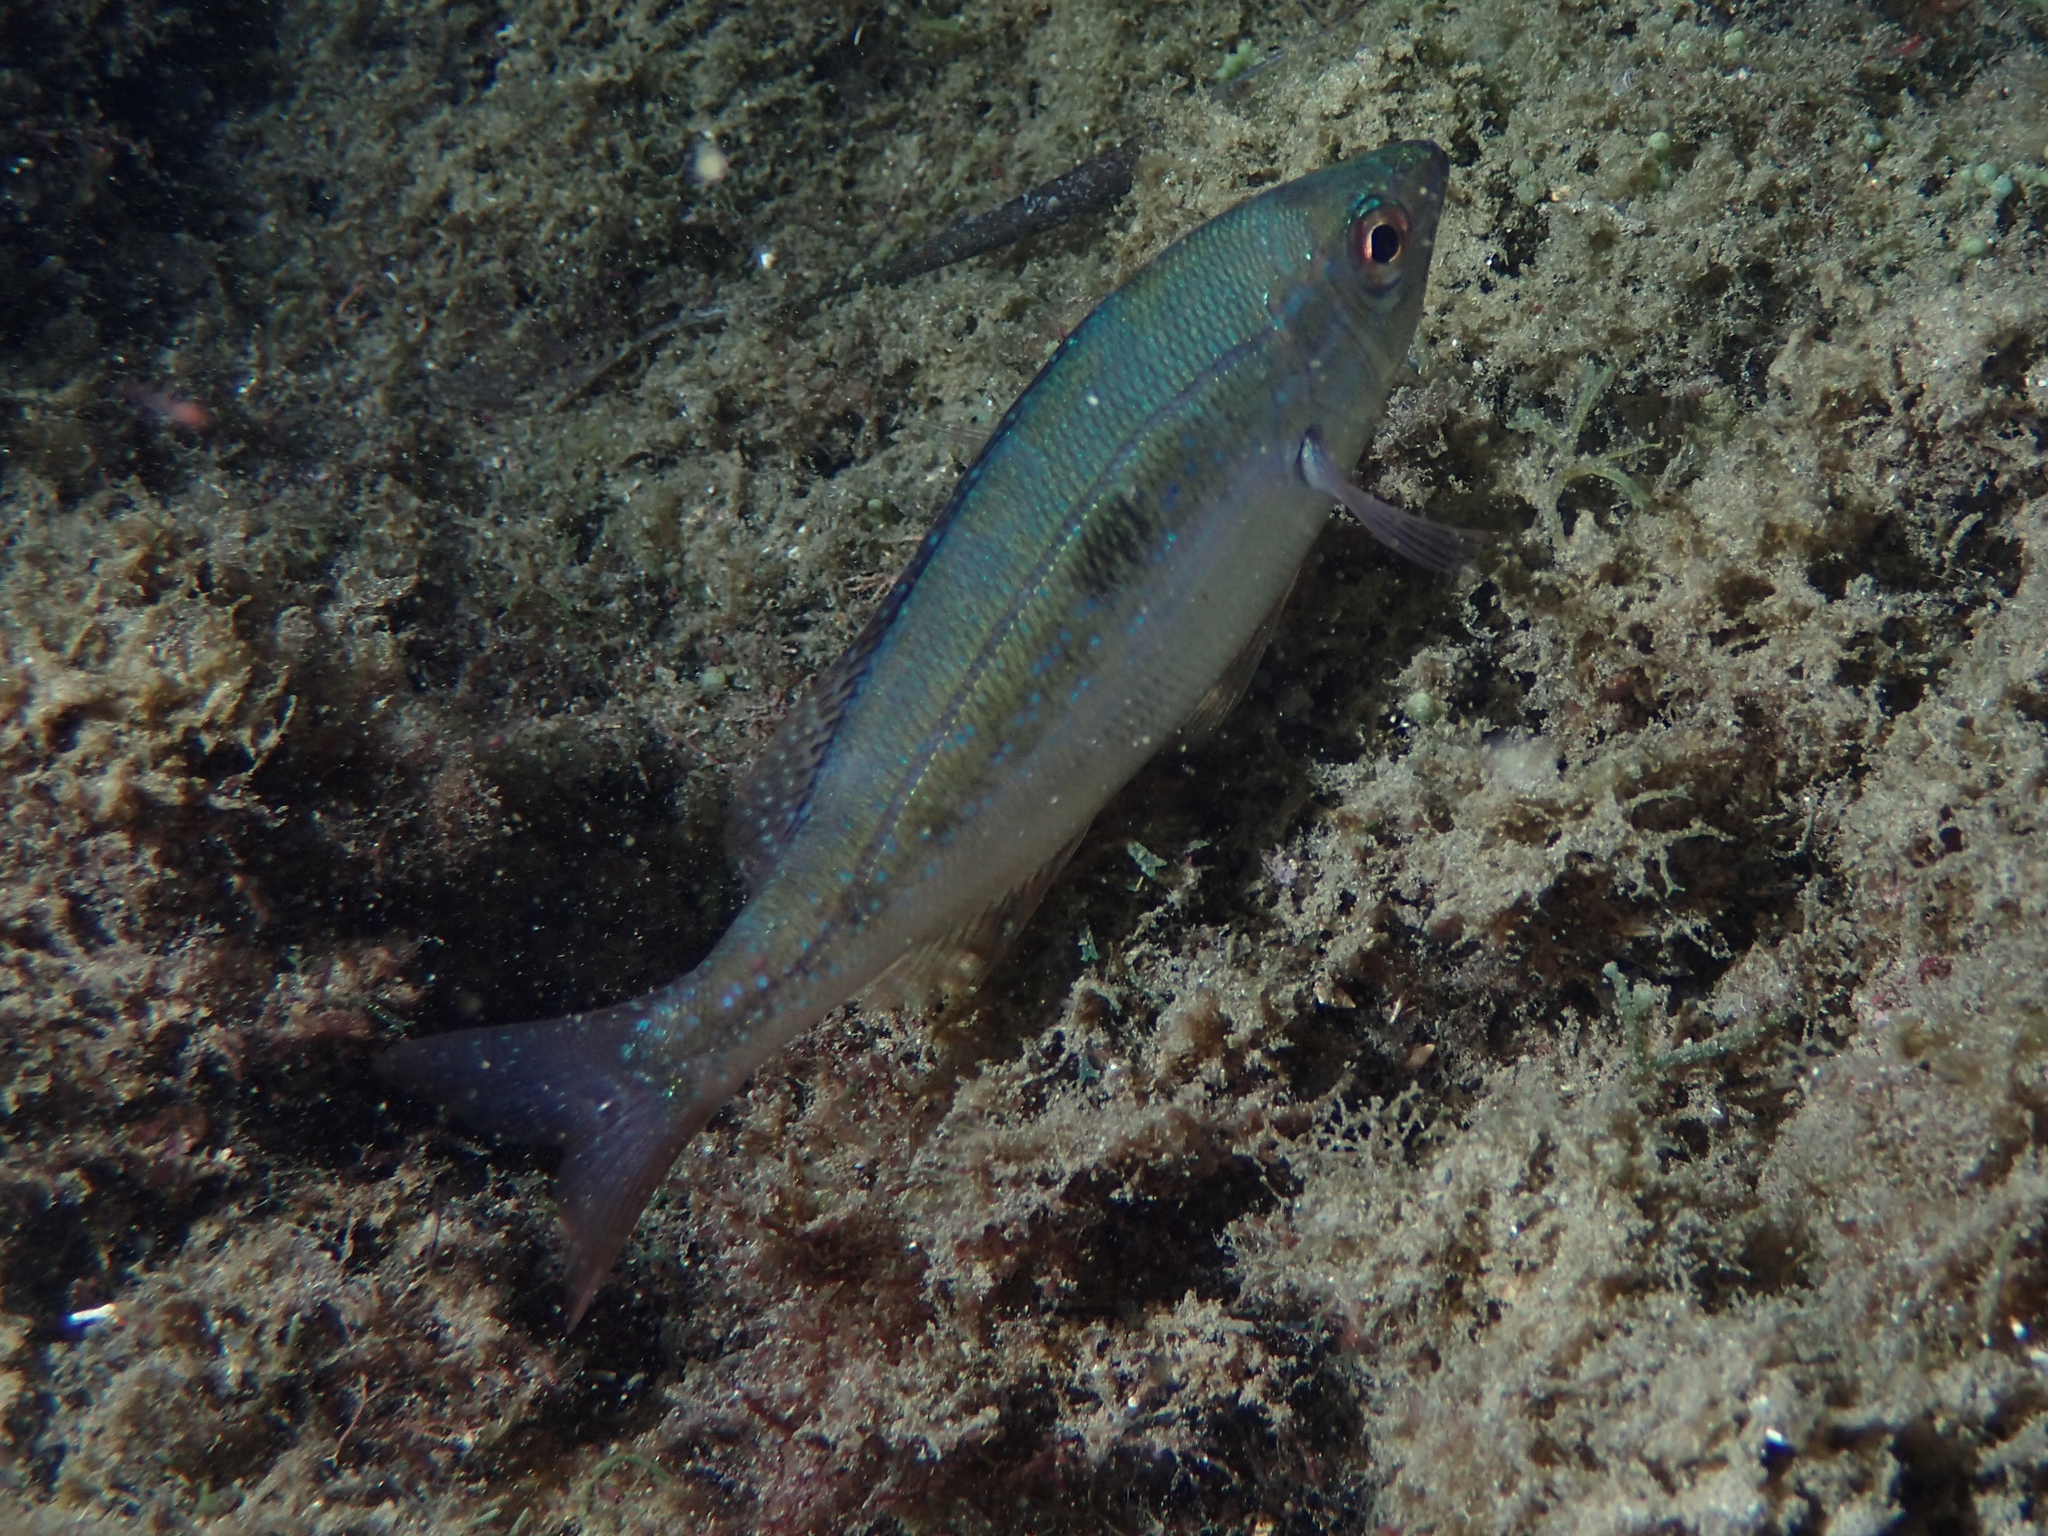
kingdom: Animalia
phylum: Chordata
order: Perciformes
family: Sparidae
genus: Spicara
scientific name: Spicara maena
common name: Blotched picarel
